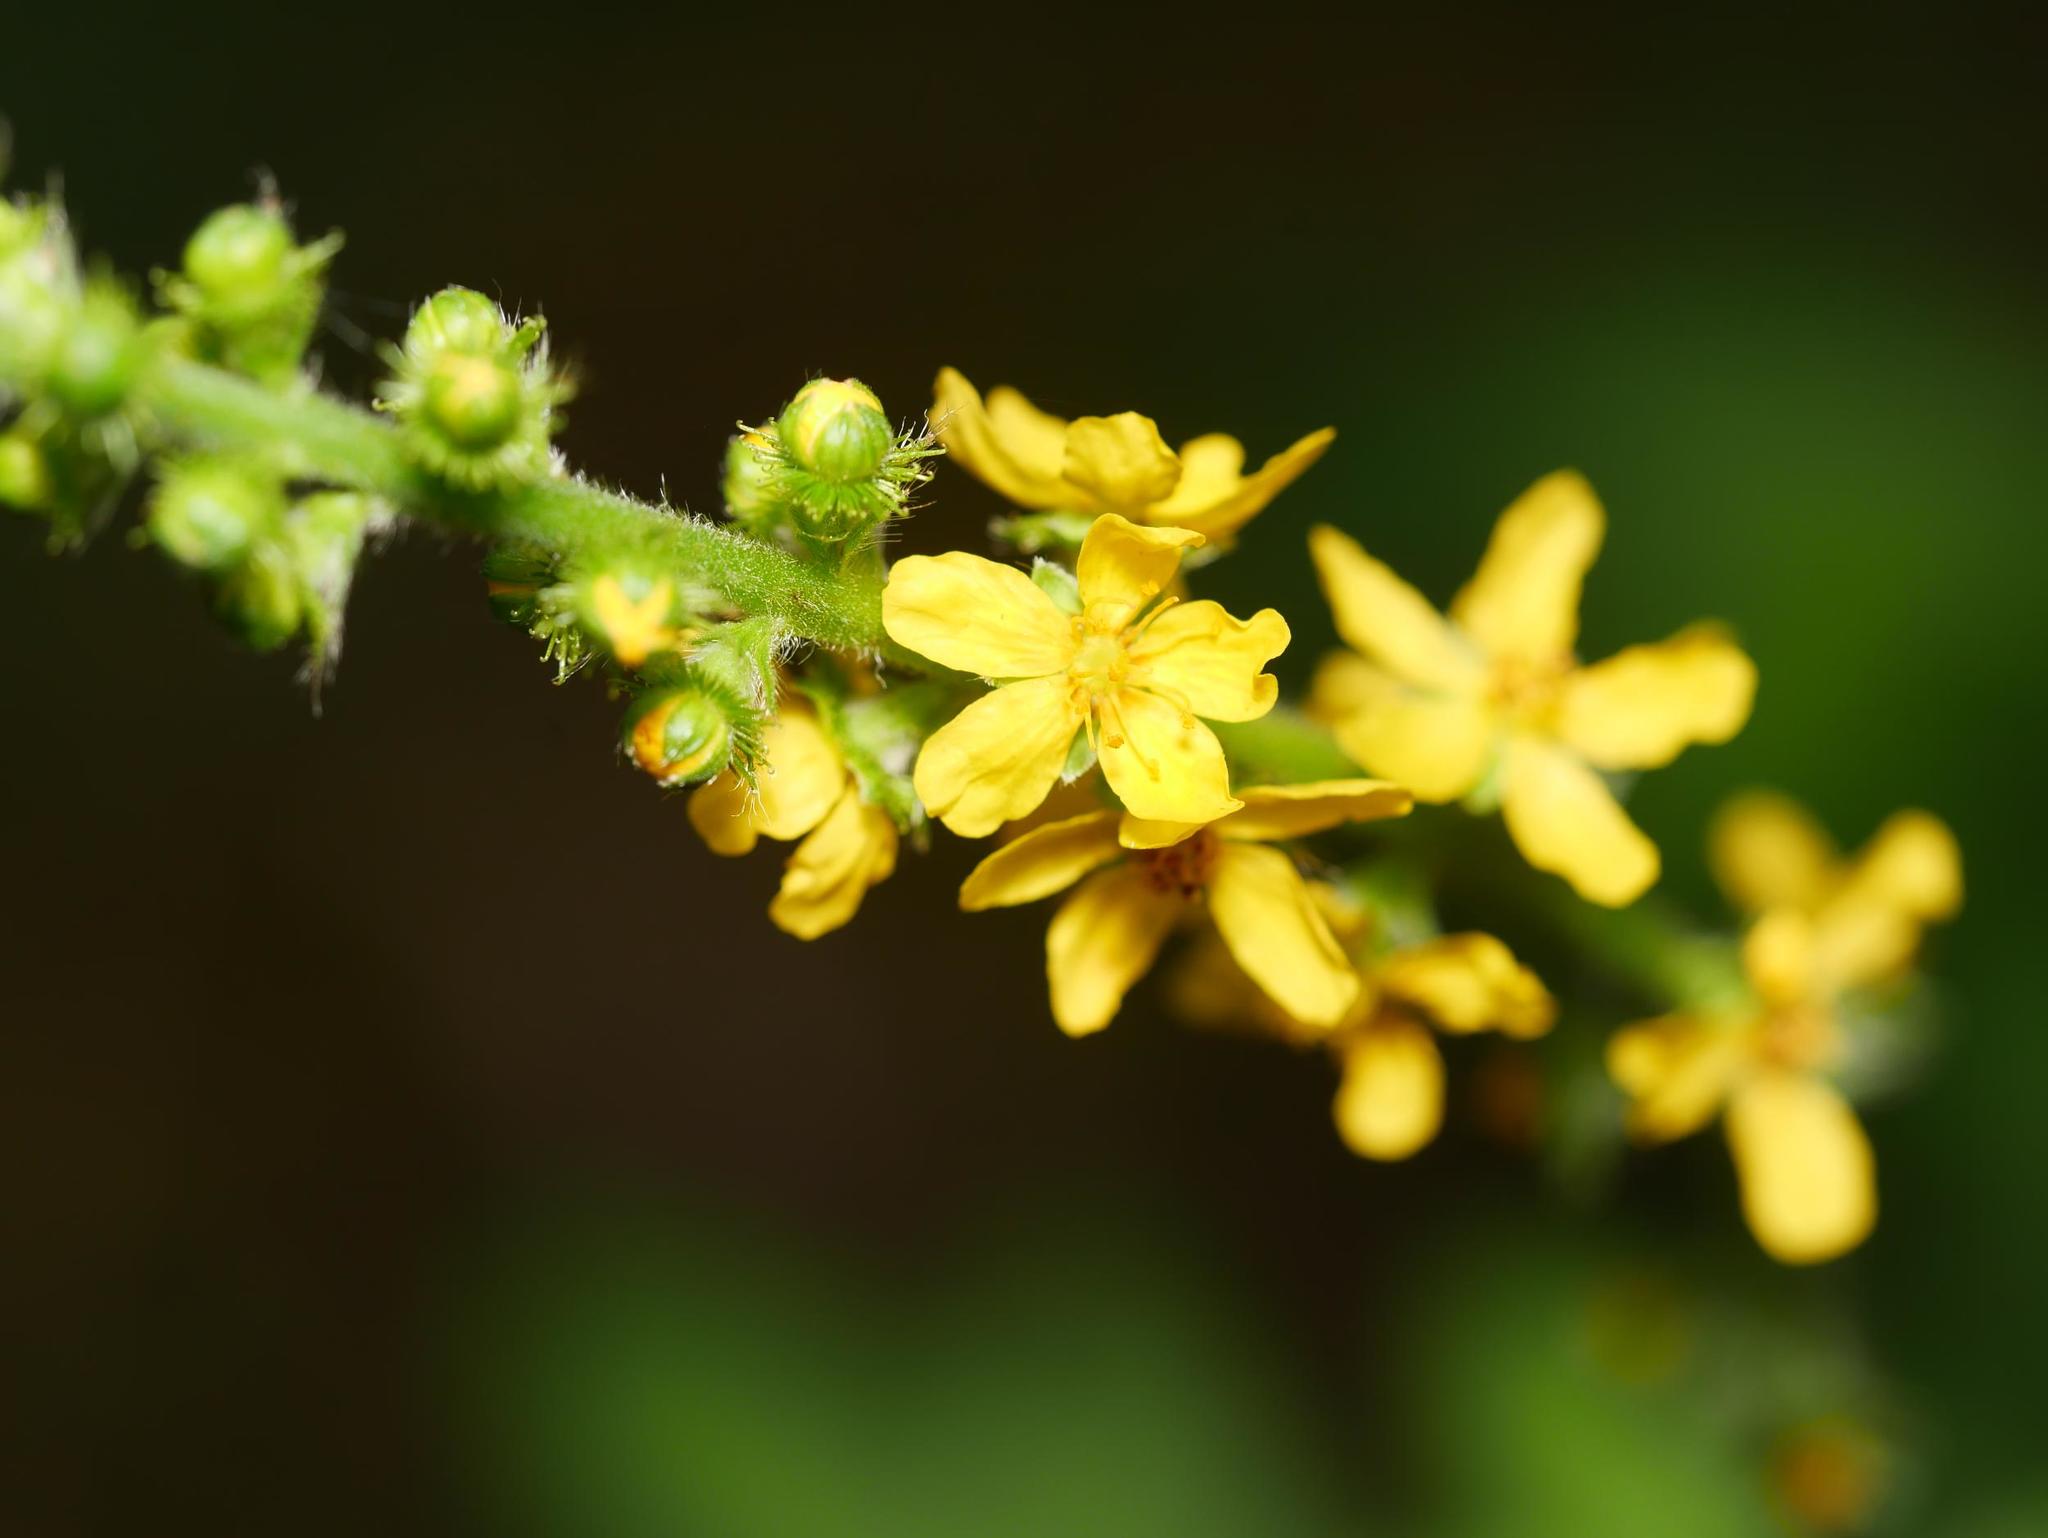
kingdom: Plantae
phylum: Tracheophyta
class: Magnoliopsida
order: Rosales
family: Rosaceae
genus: Agrimonia
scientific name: Agrimonia eupatoria
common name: Agrimony
